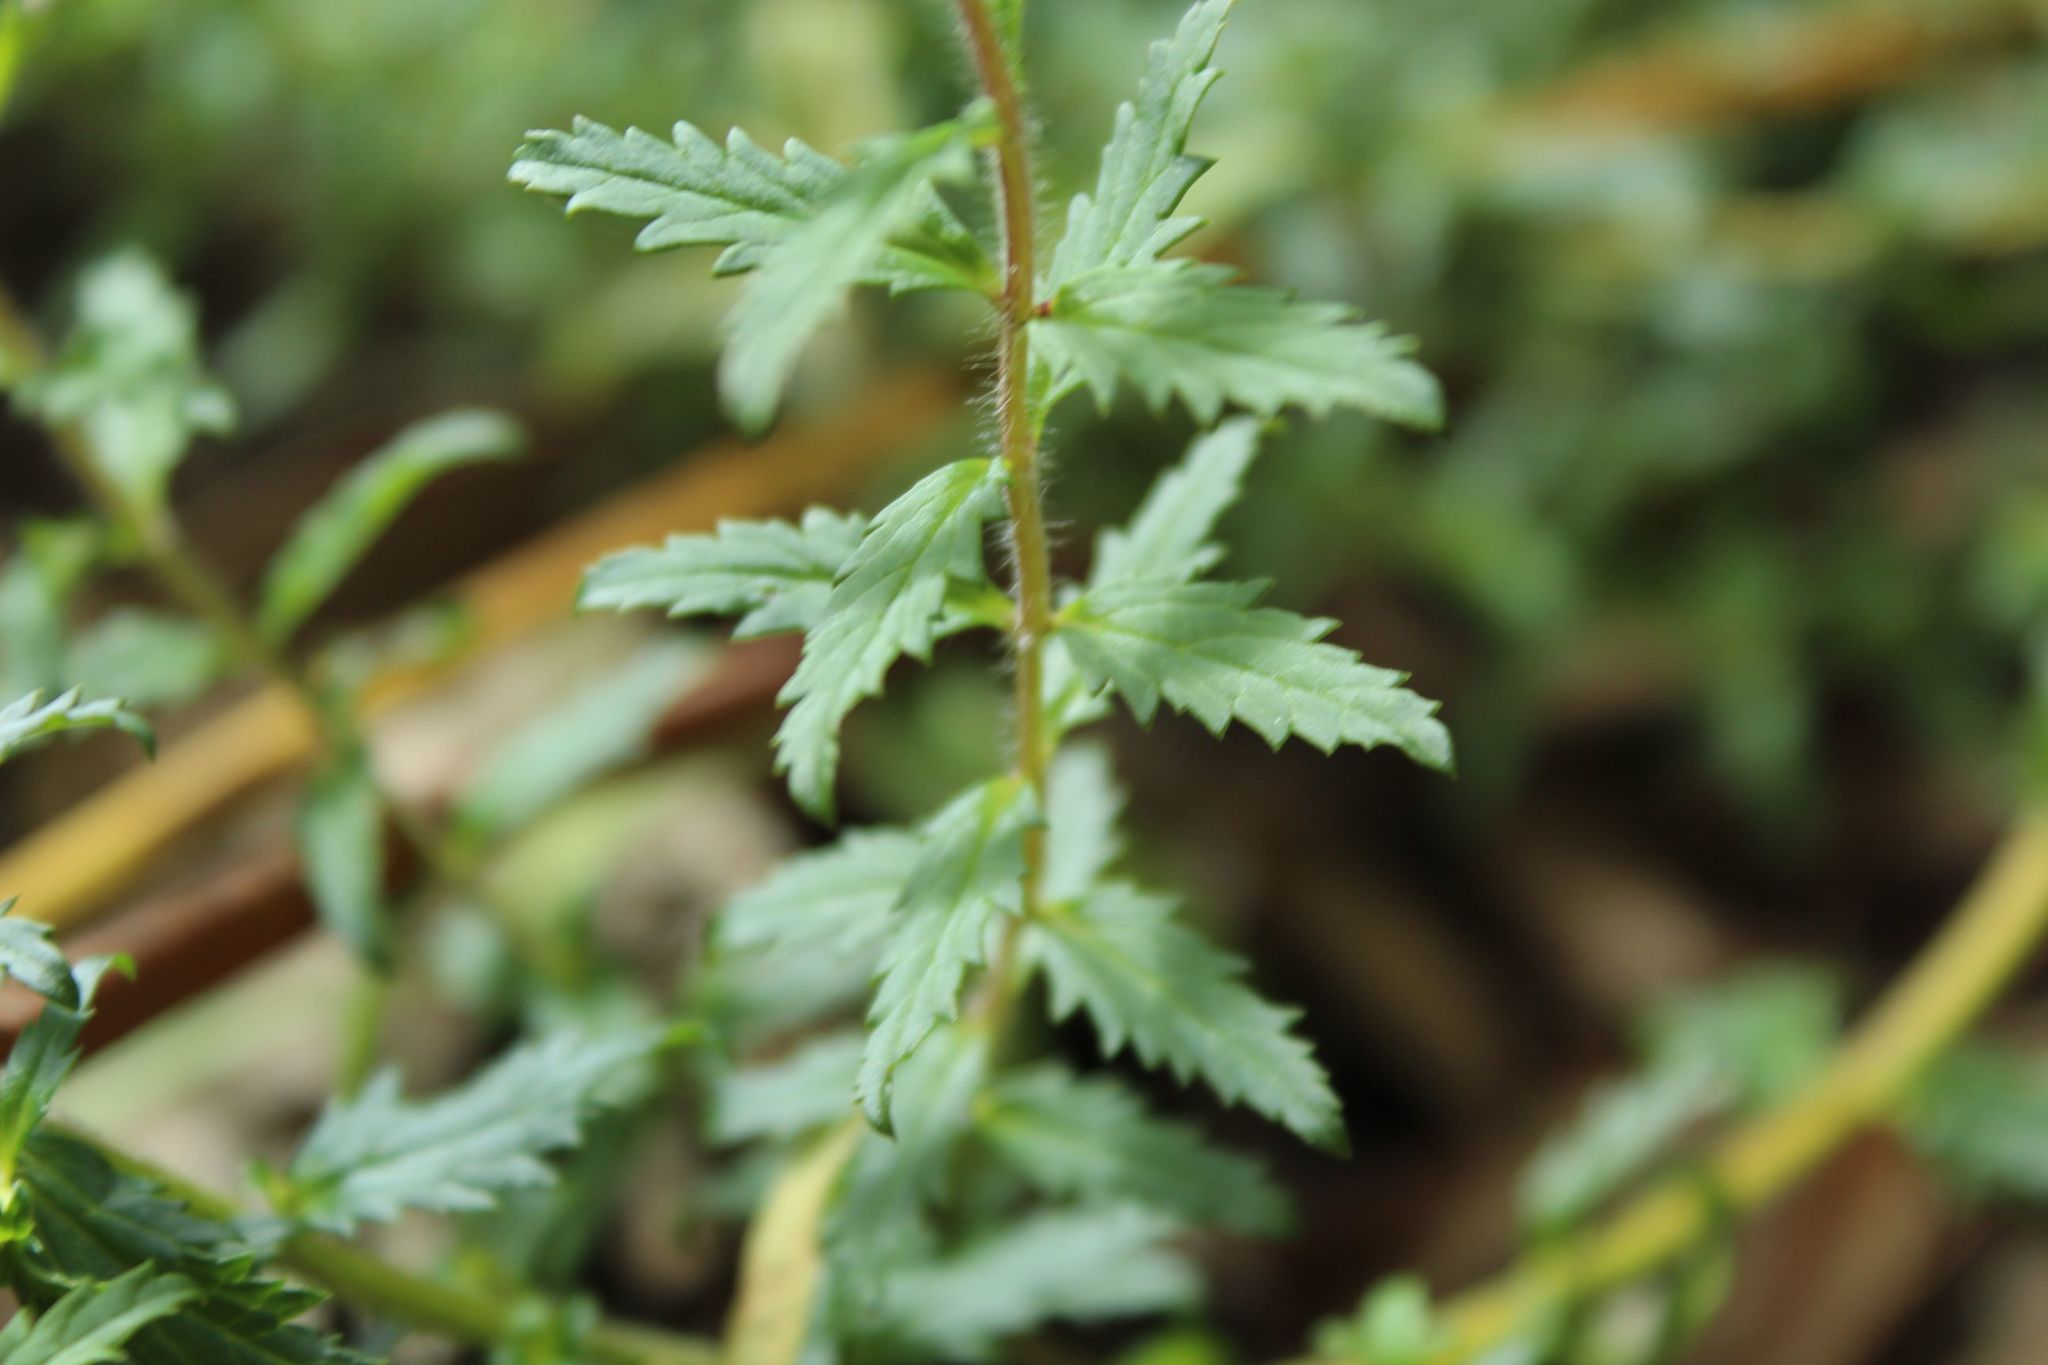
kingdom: Plantae
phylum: Tracheophyta
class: Magnoliopsida
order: Lamiales
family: Orobanchaceae
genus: Lamourouxia
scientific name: Lamourouxia sylvatica
